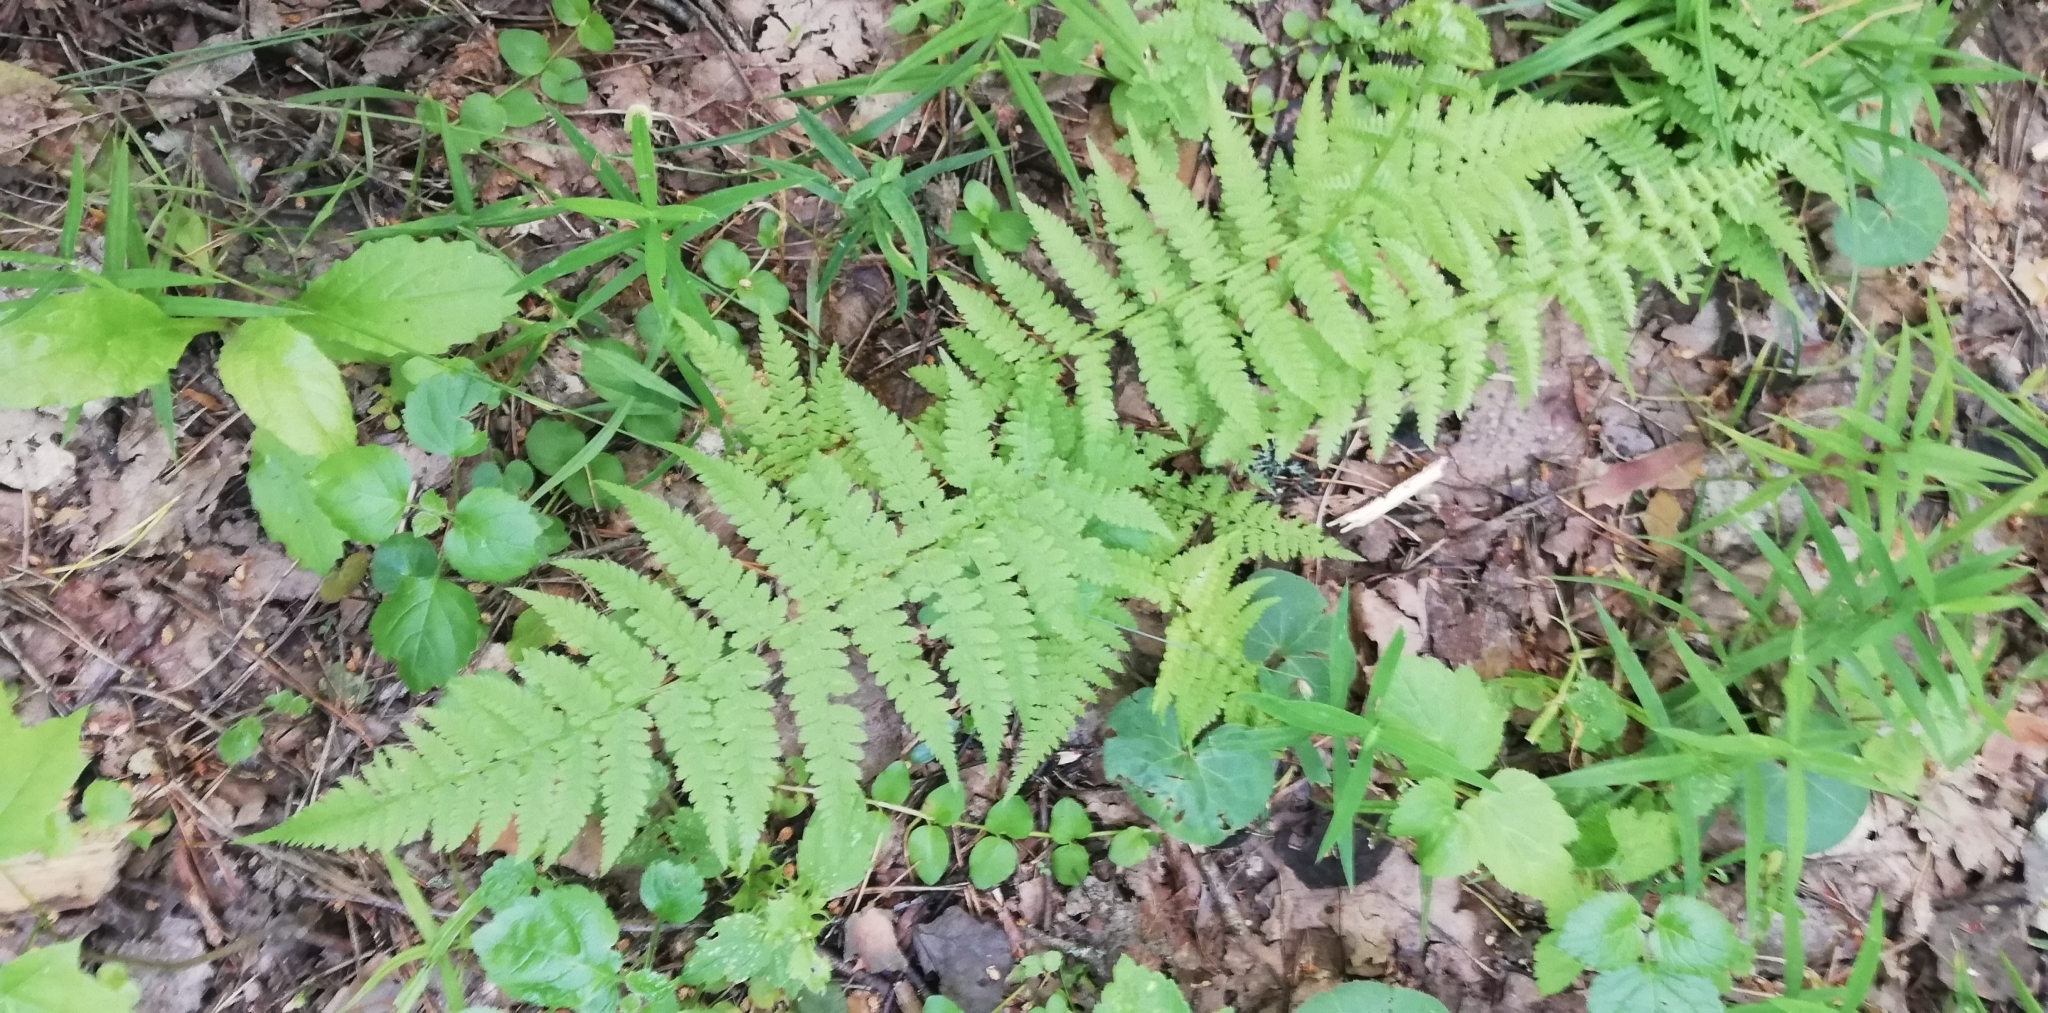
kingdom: Plantae
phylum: Tracheophyta
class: Polypodiopsida
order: Polypodiales
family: Athyriaceae
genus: Athyrium
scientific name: Athyrium filix-femina
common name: Lady fern
